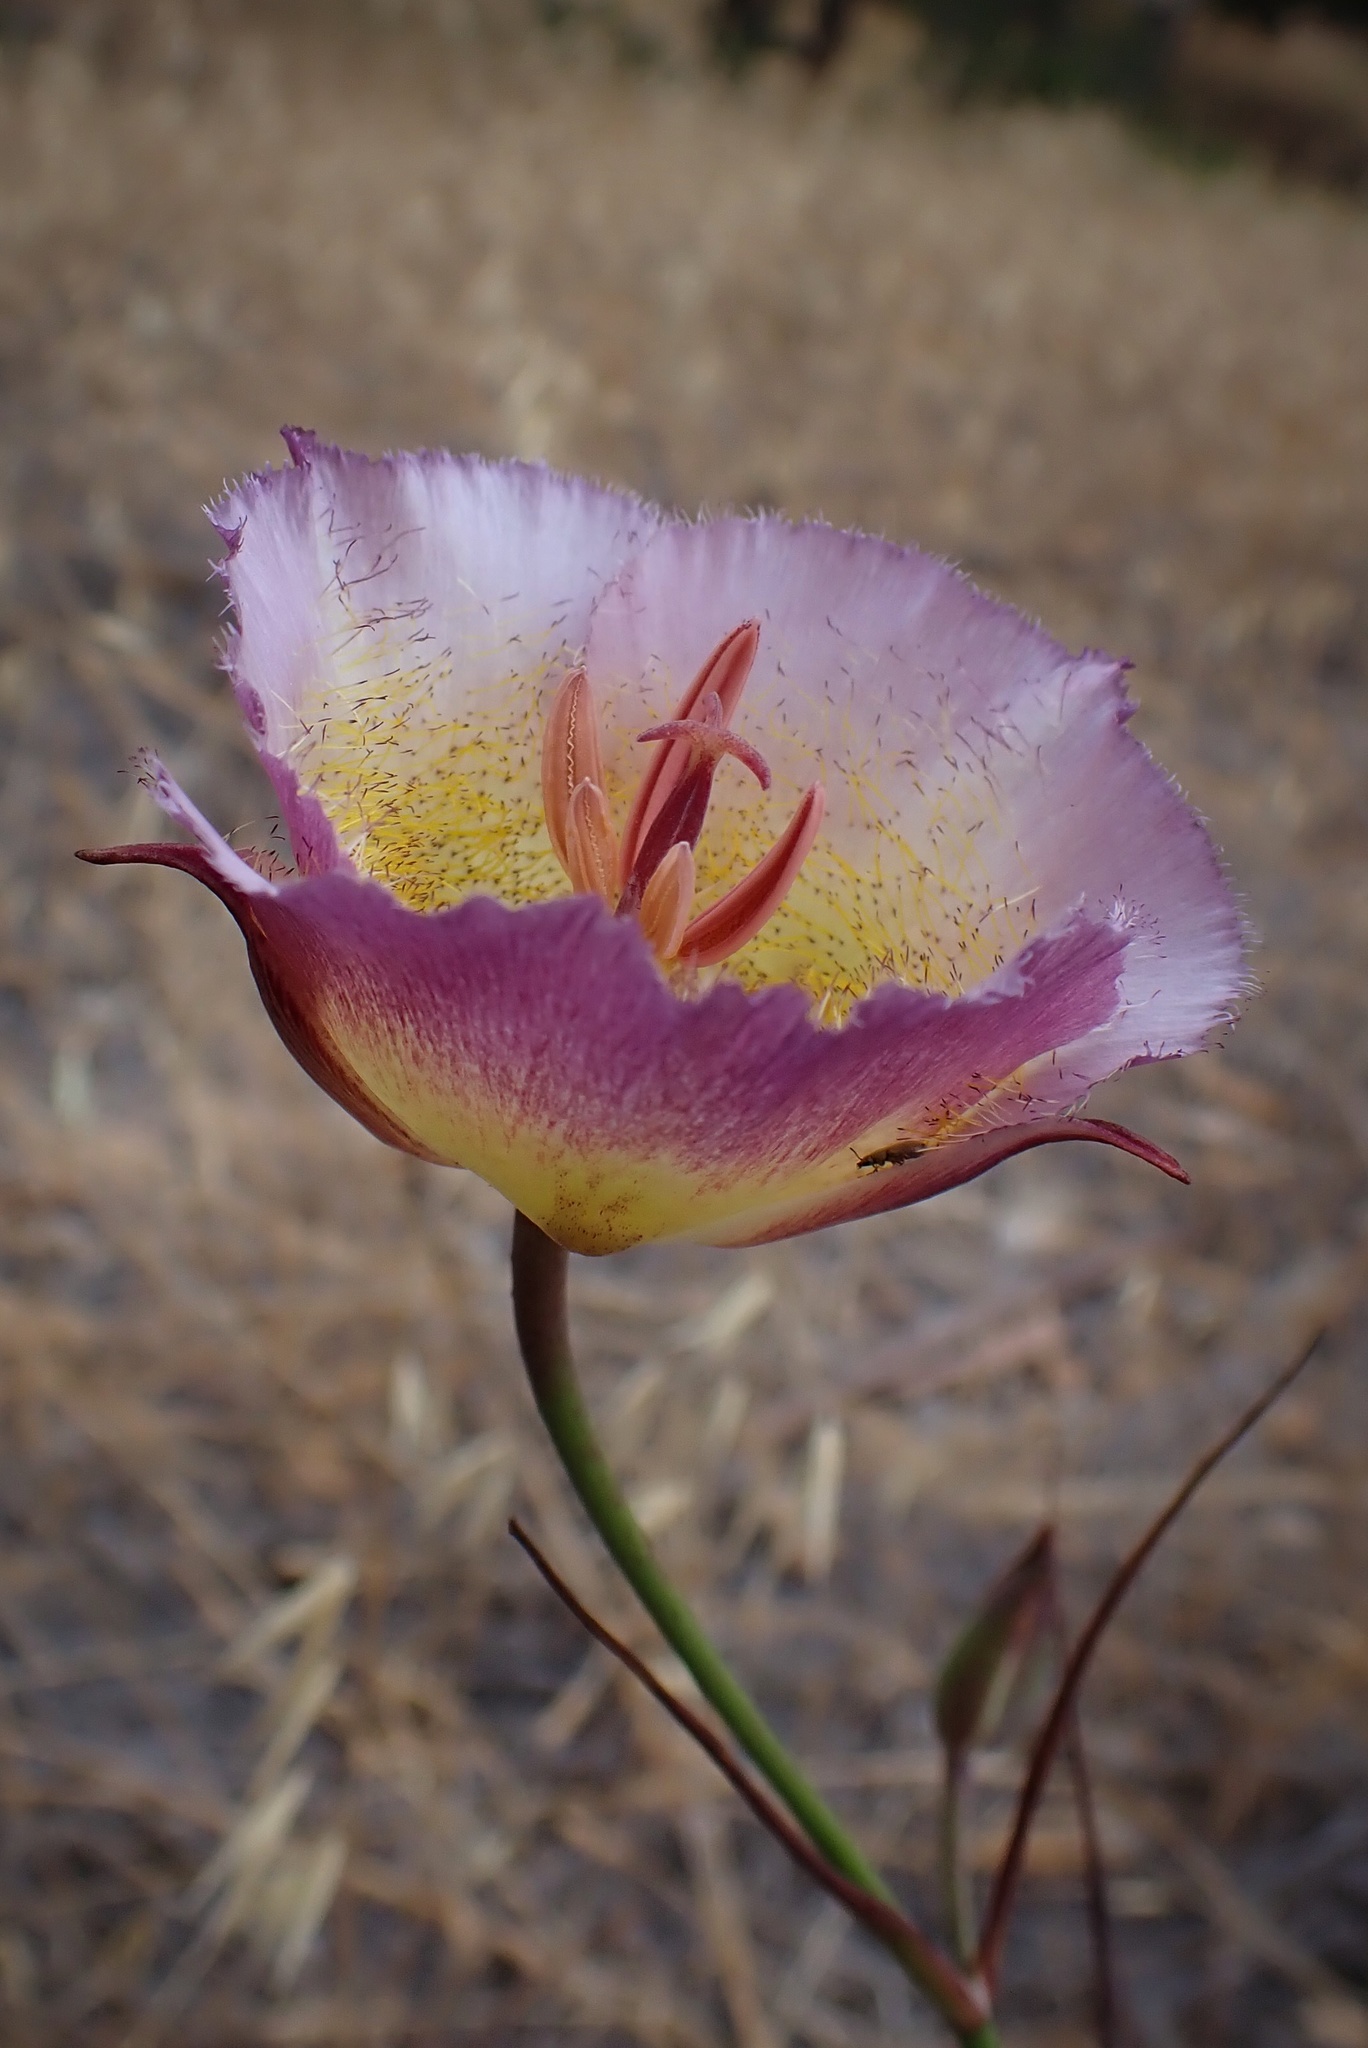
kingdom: Plantae
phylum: Tracheophyta
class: Liliopsida
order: Liliales
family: Liliaceae
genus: Calochortus
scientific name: Calochortus plummerae
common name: Plummer's mariposa-lily
